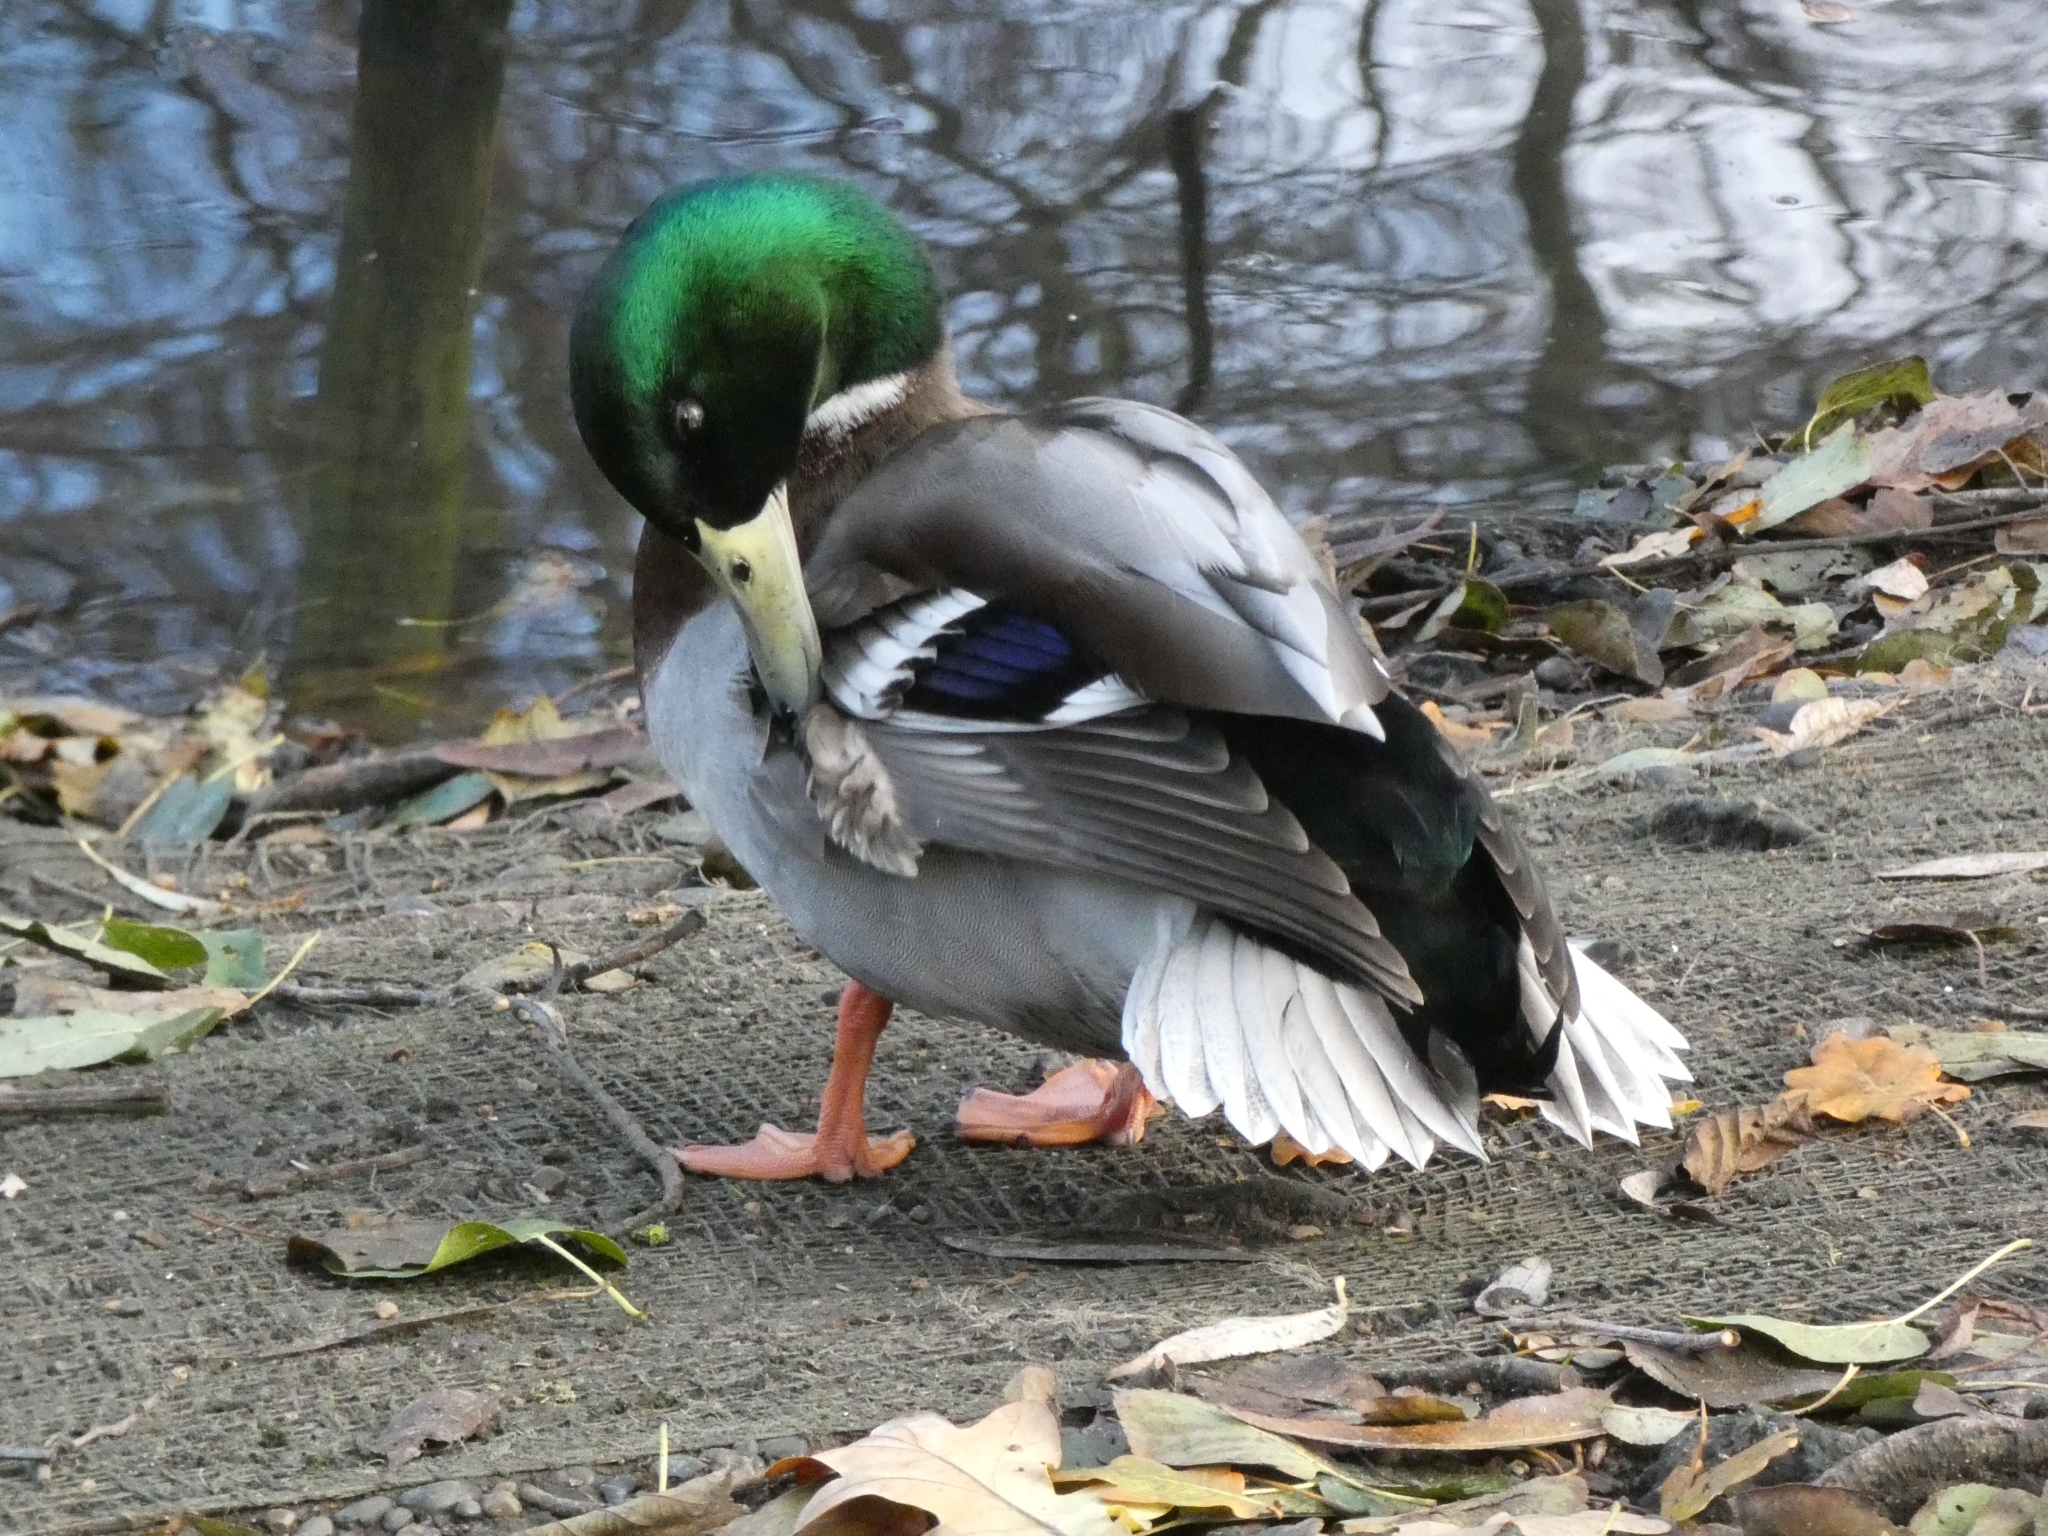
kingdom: Animalia
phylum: Chordata
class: Aves
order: Anseriformes
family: Anatidae
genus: Anas
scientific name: Anas platyrhynchos
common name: Mallard
